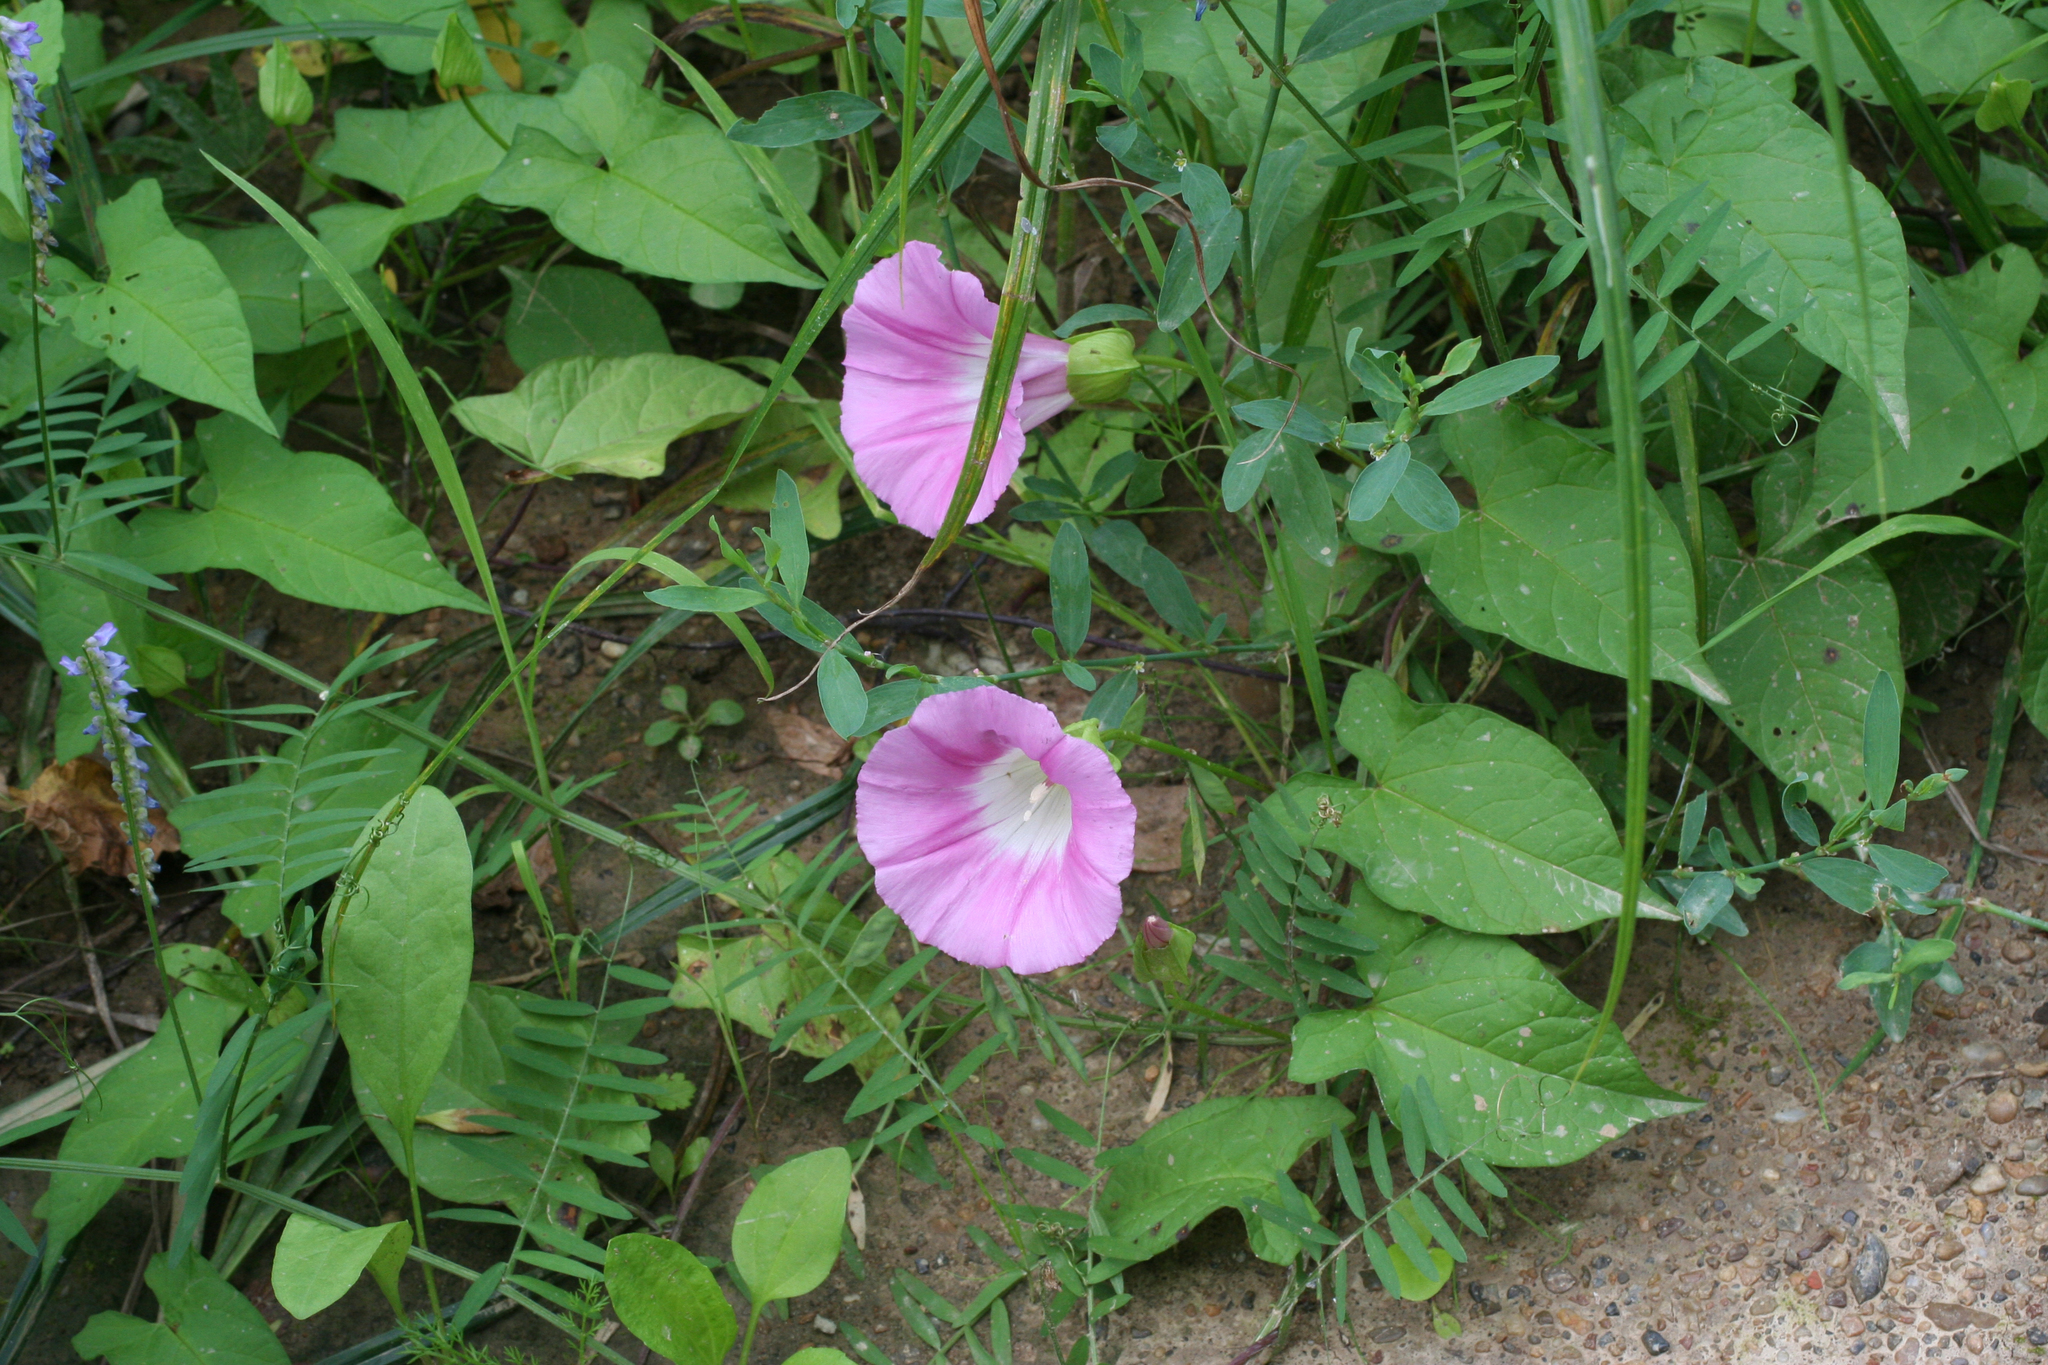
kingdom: Plantae
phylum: Tracheophyta
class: Magnoliopsida
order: Solanales
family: Convolvulaceae
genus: Calystegia
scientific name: Calystegia sepium
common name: Hedge bindweed
